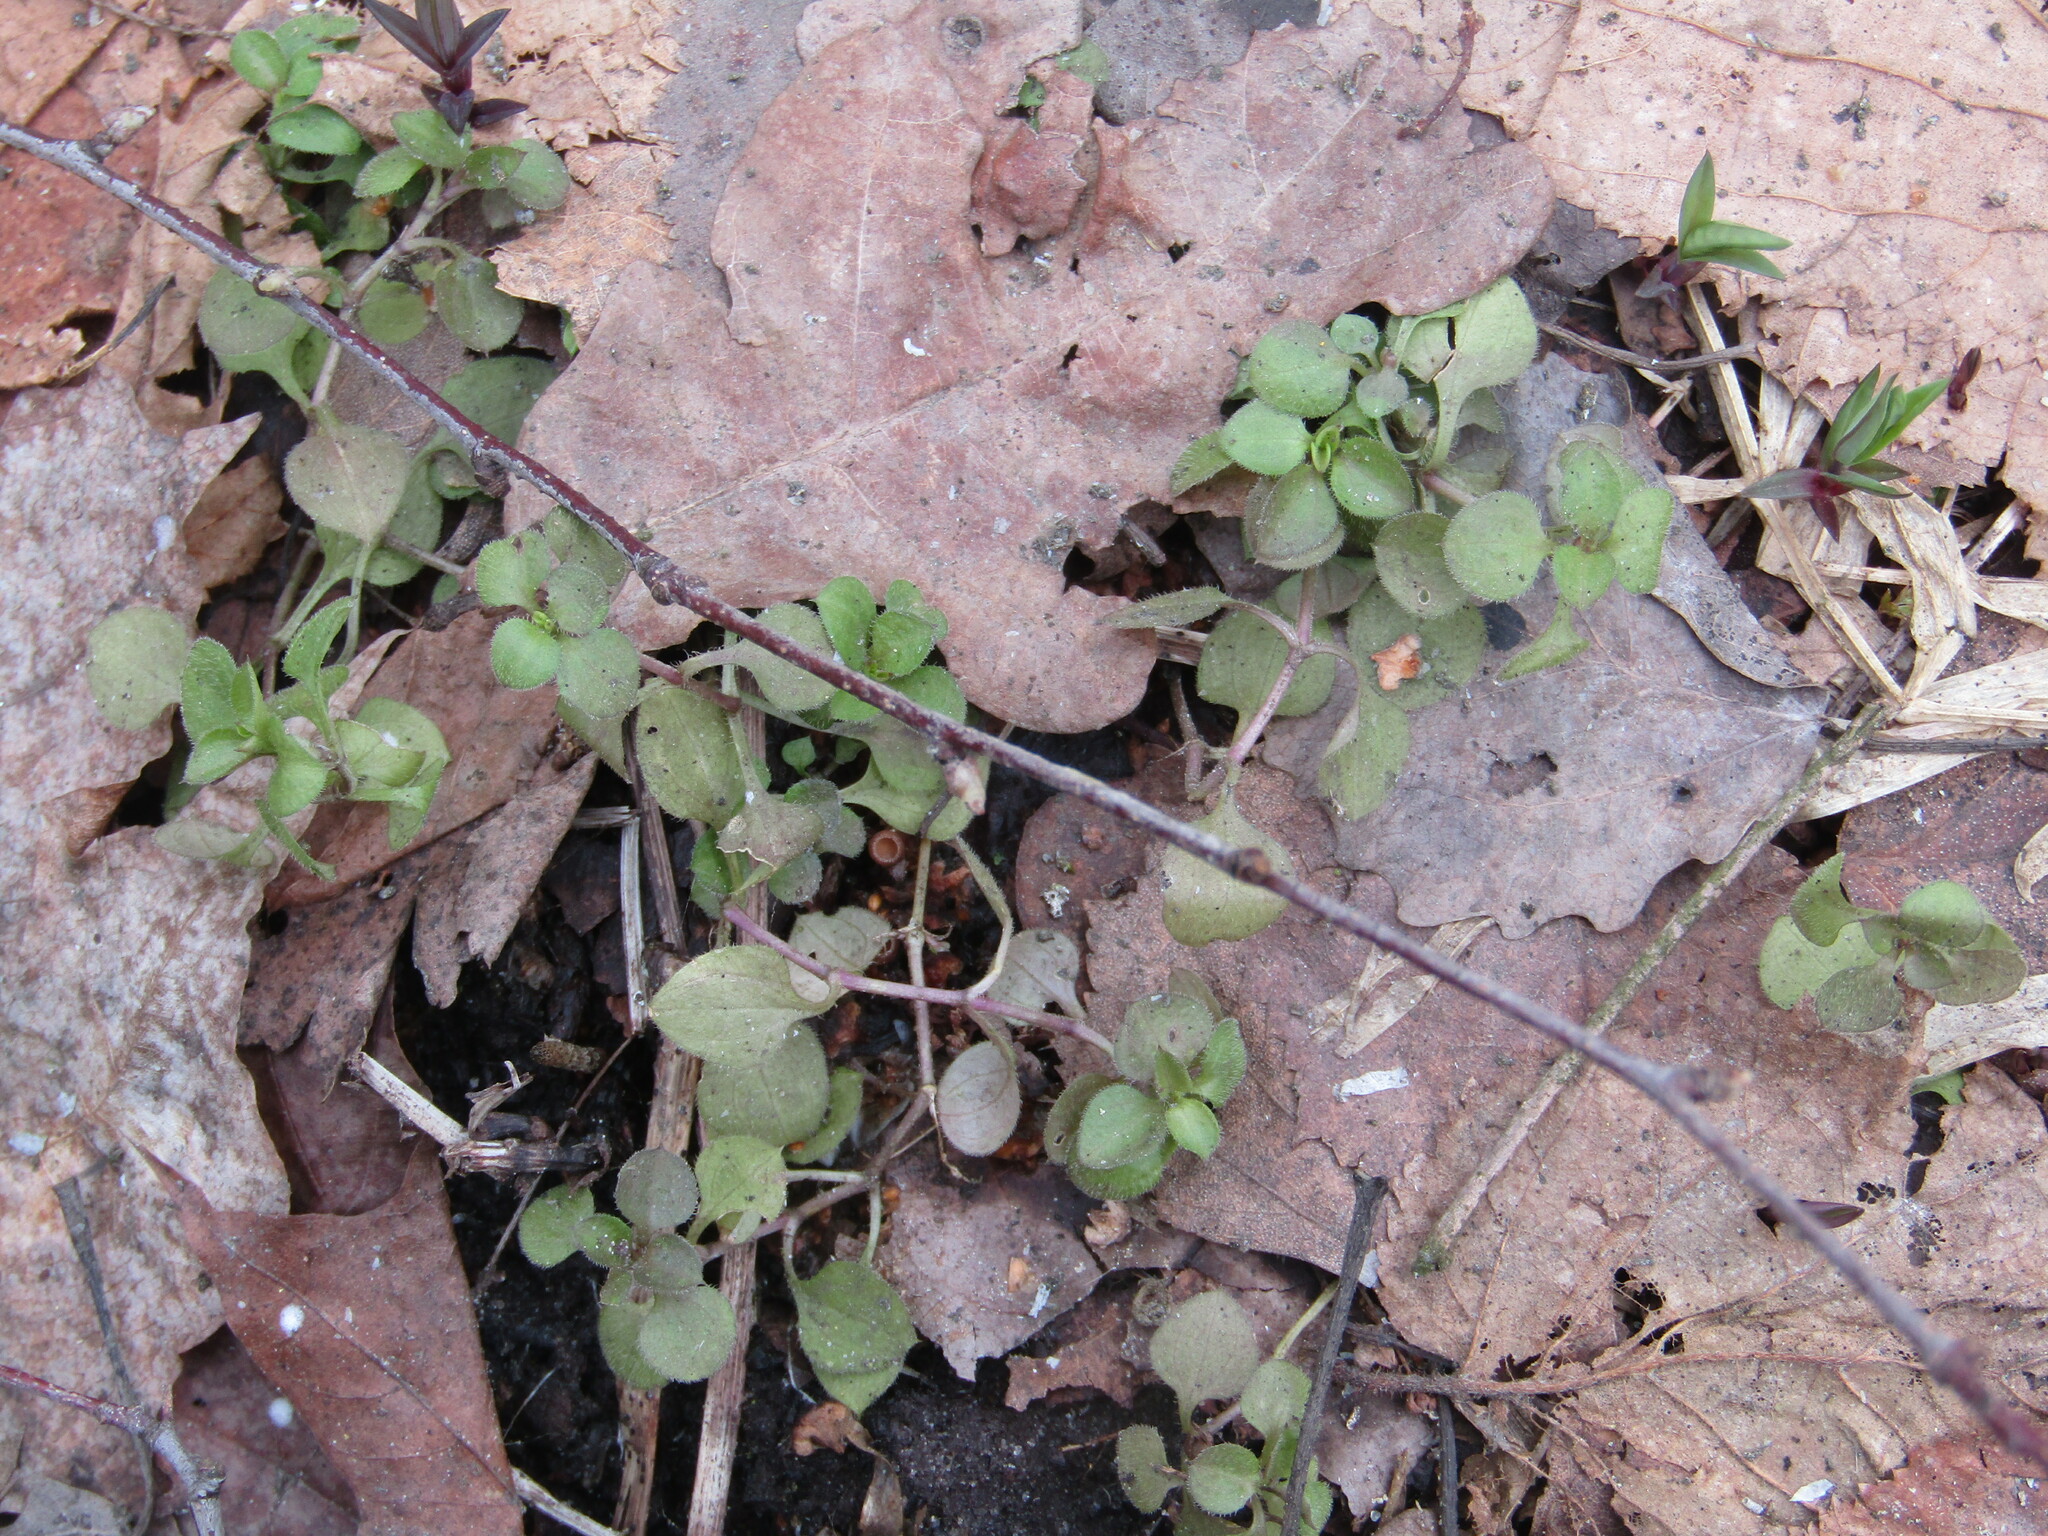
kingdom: Plantae
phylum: Tracheophyta
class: Magnoliopsida
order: Caryophyllales
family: Caryophyllaceae
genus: Moehringia
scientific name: Moehringia trinervia
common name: Three-nerved sandwort
